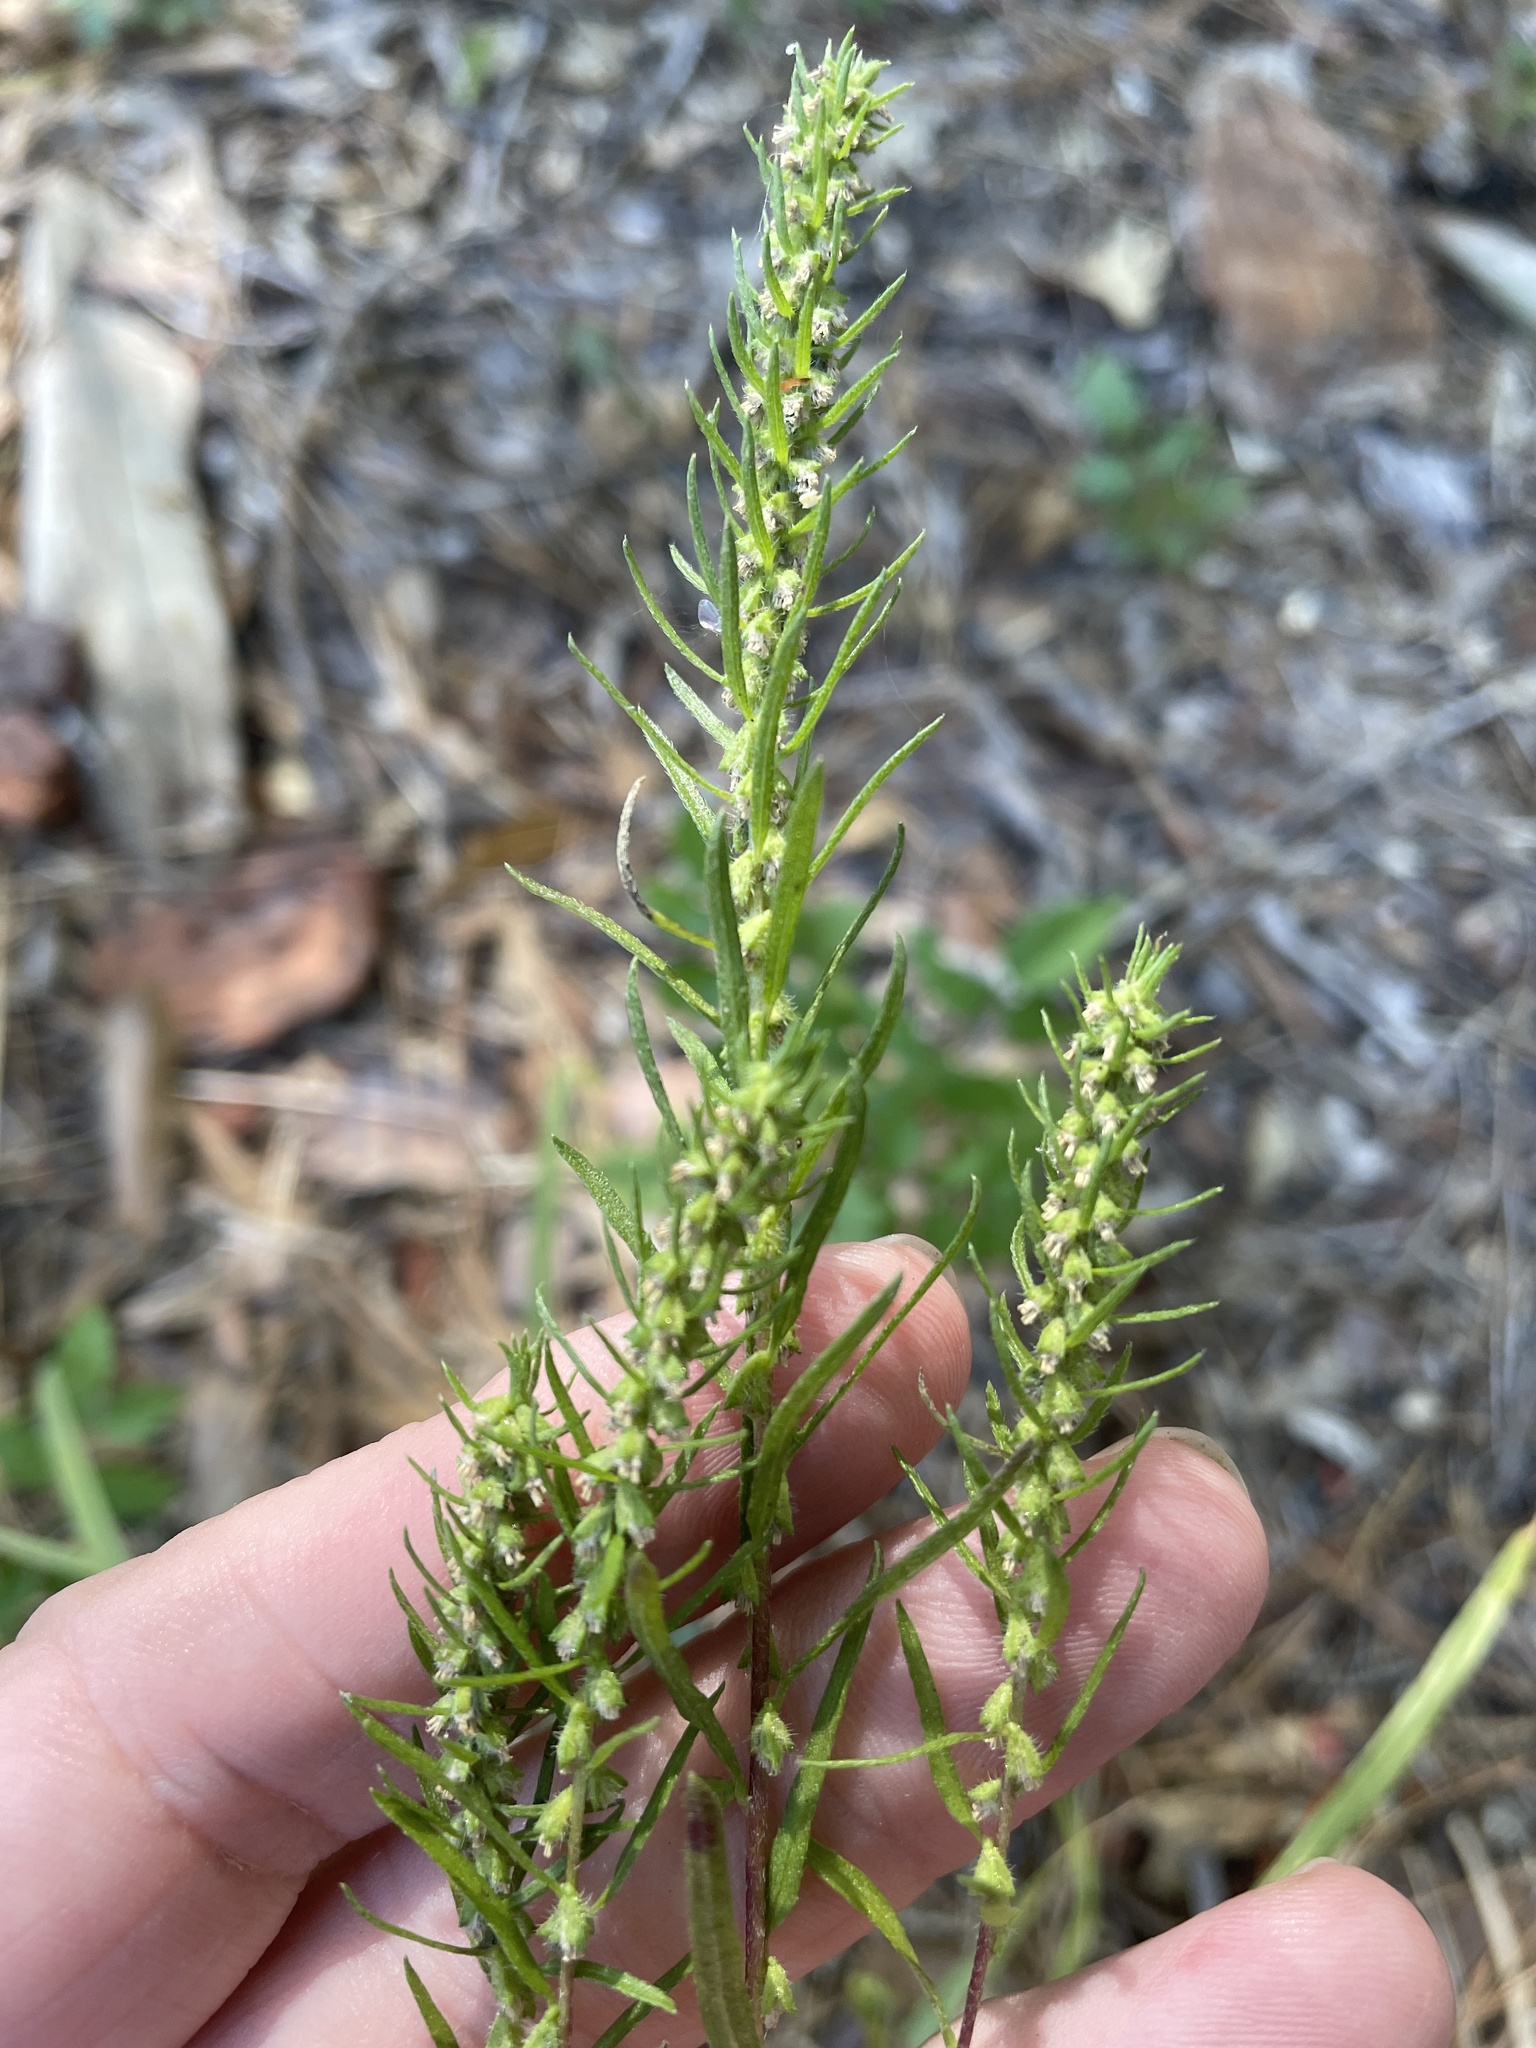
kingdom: Plantae
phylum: Tracheophyta
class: Magnoliopsida
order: Asterales
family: Asteraceae
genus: Iva
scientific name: Iva asperifolia
